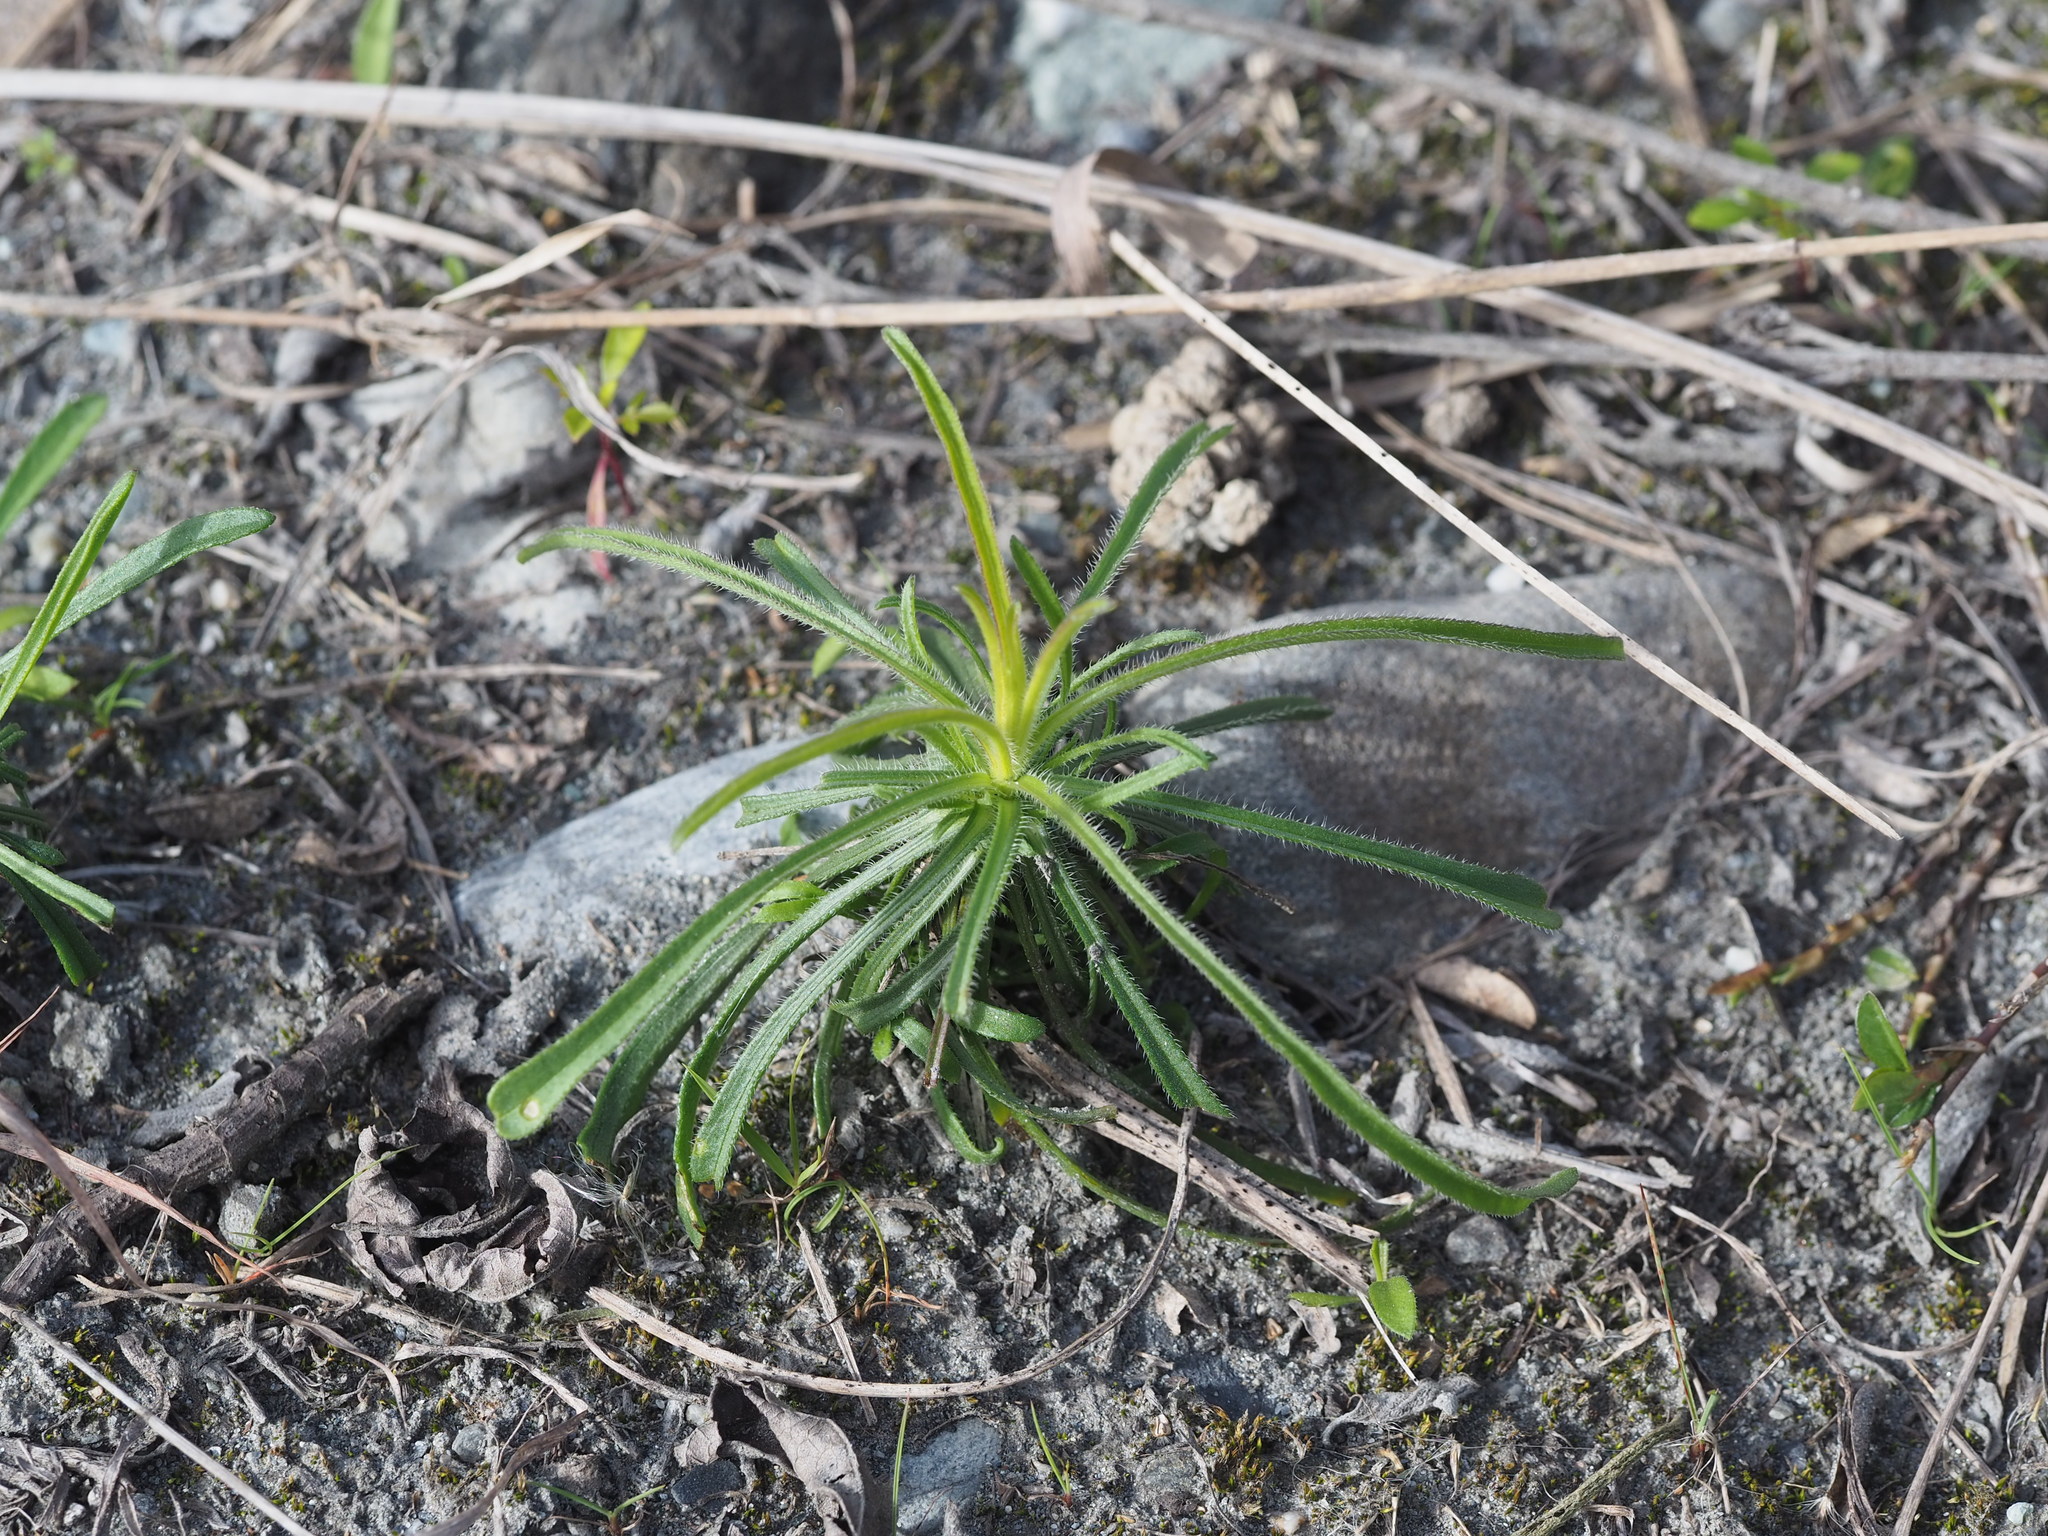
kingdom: Plantae
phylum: Tracheophyta
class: Magnoliopsida
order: Asterales
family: Asteraceae
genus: Heteropappus
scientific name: Heteropappus altaicus
